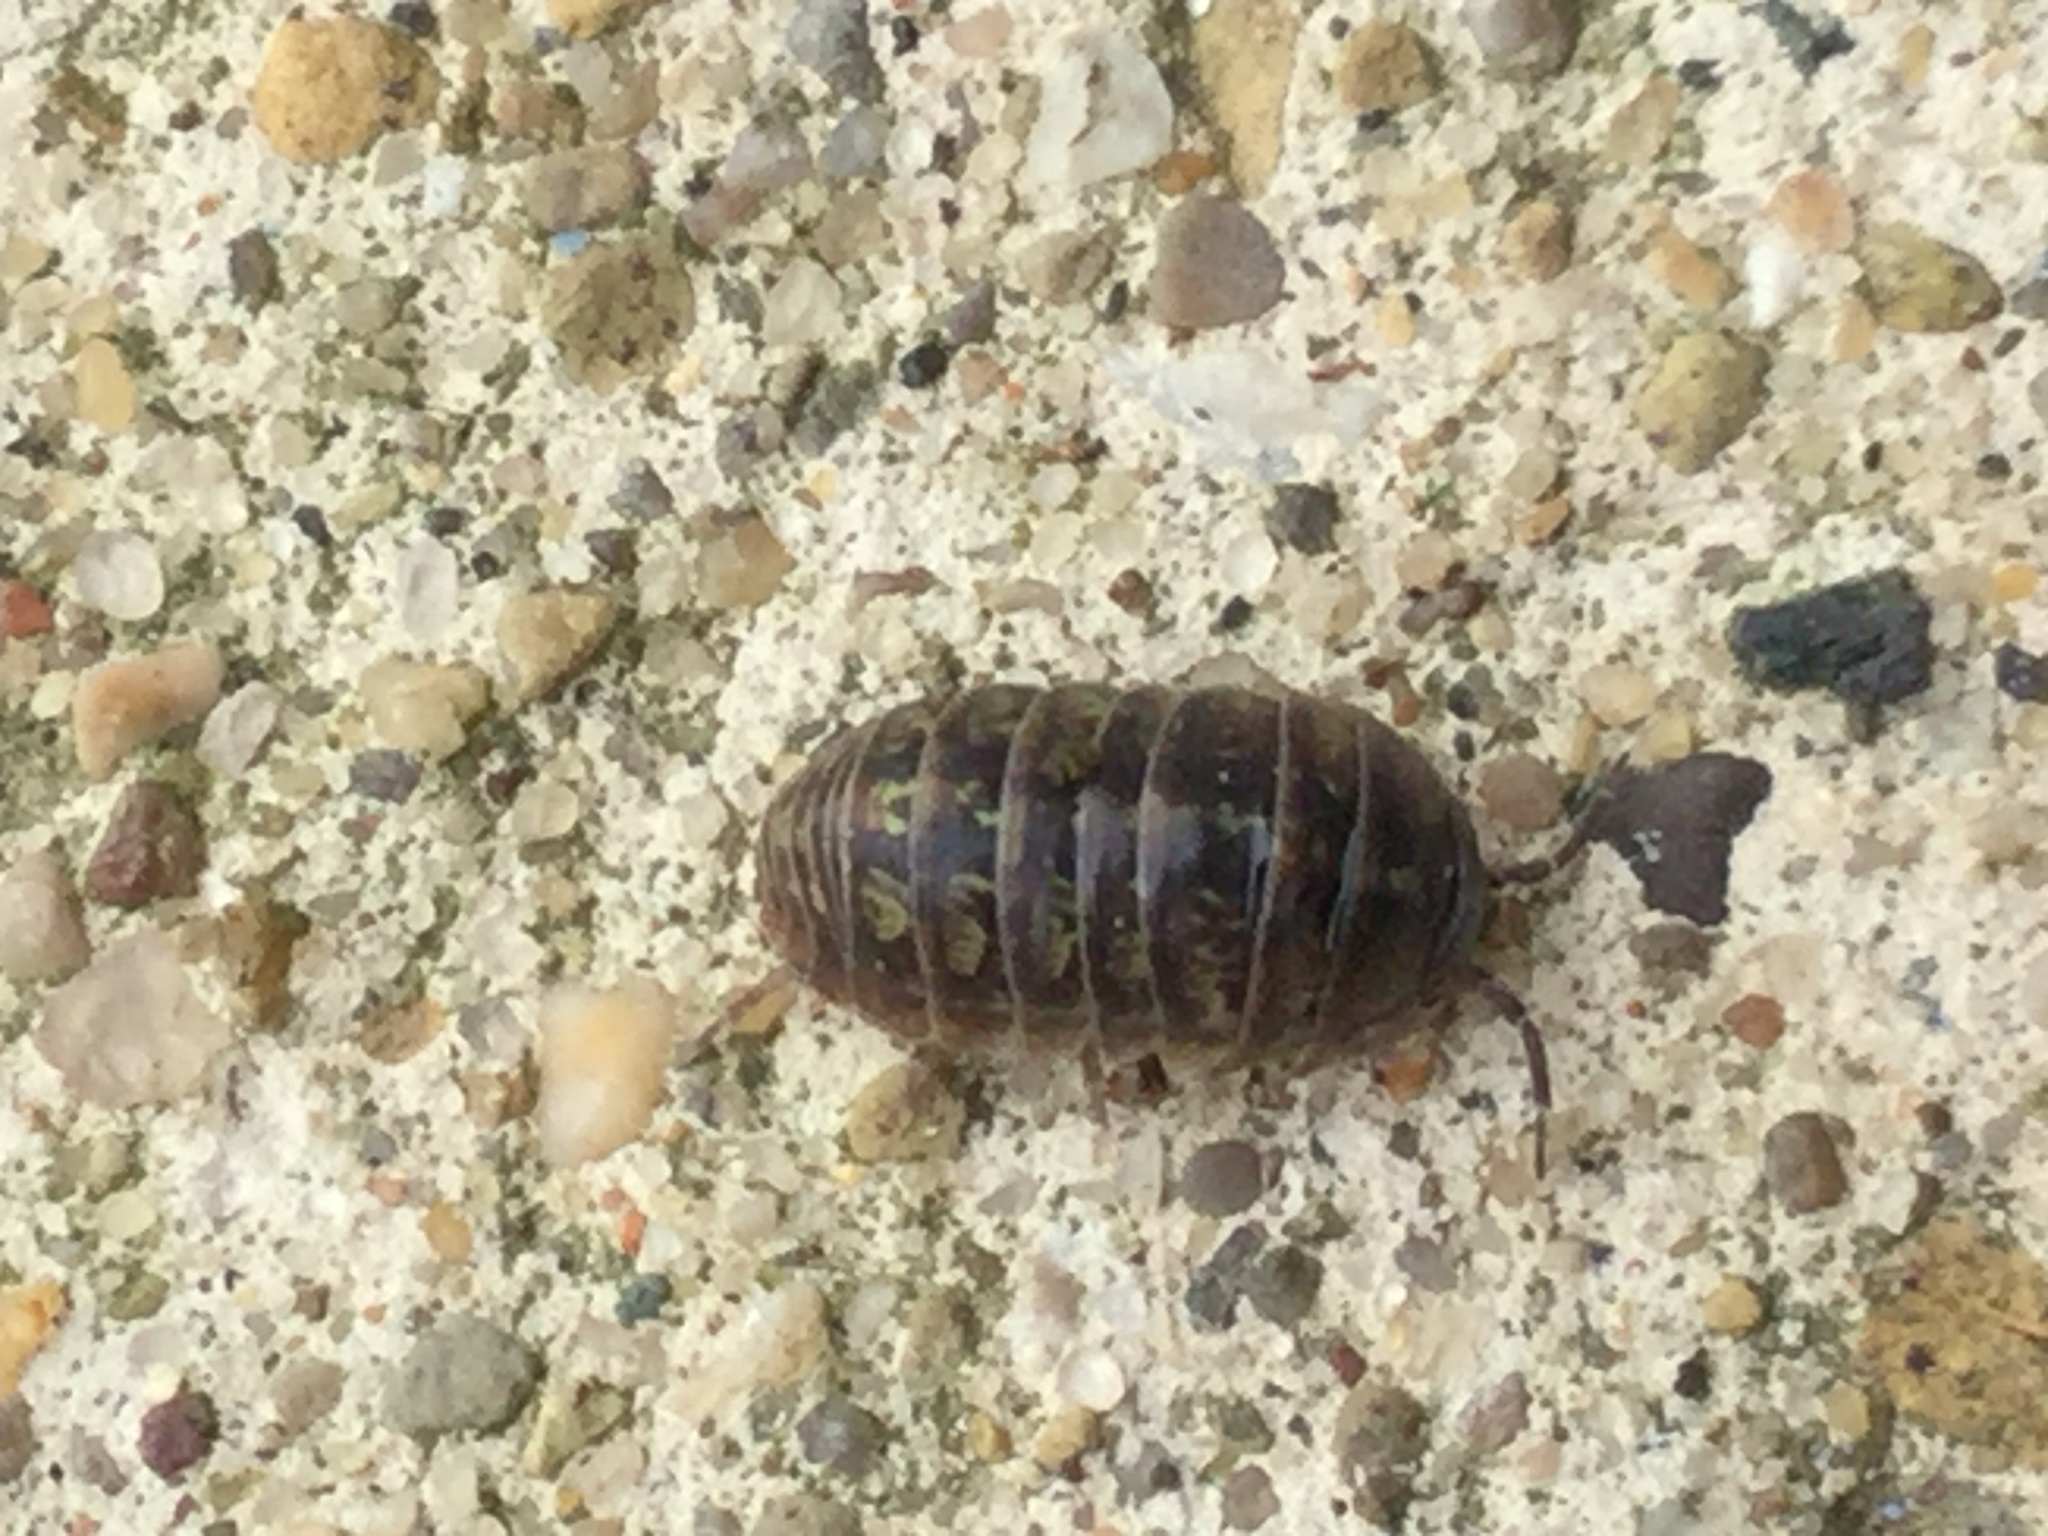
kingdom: Animalia
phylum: Arthropoda
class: Malacostraca
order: Isopoda
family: Armadillidiidae
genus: Armadillidium
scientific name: Armadillidium vulgare
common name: Common pill woodlouse
